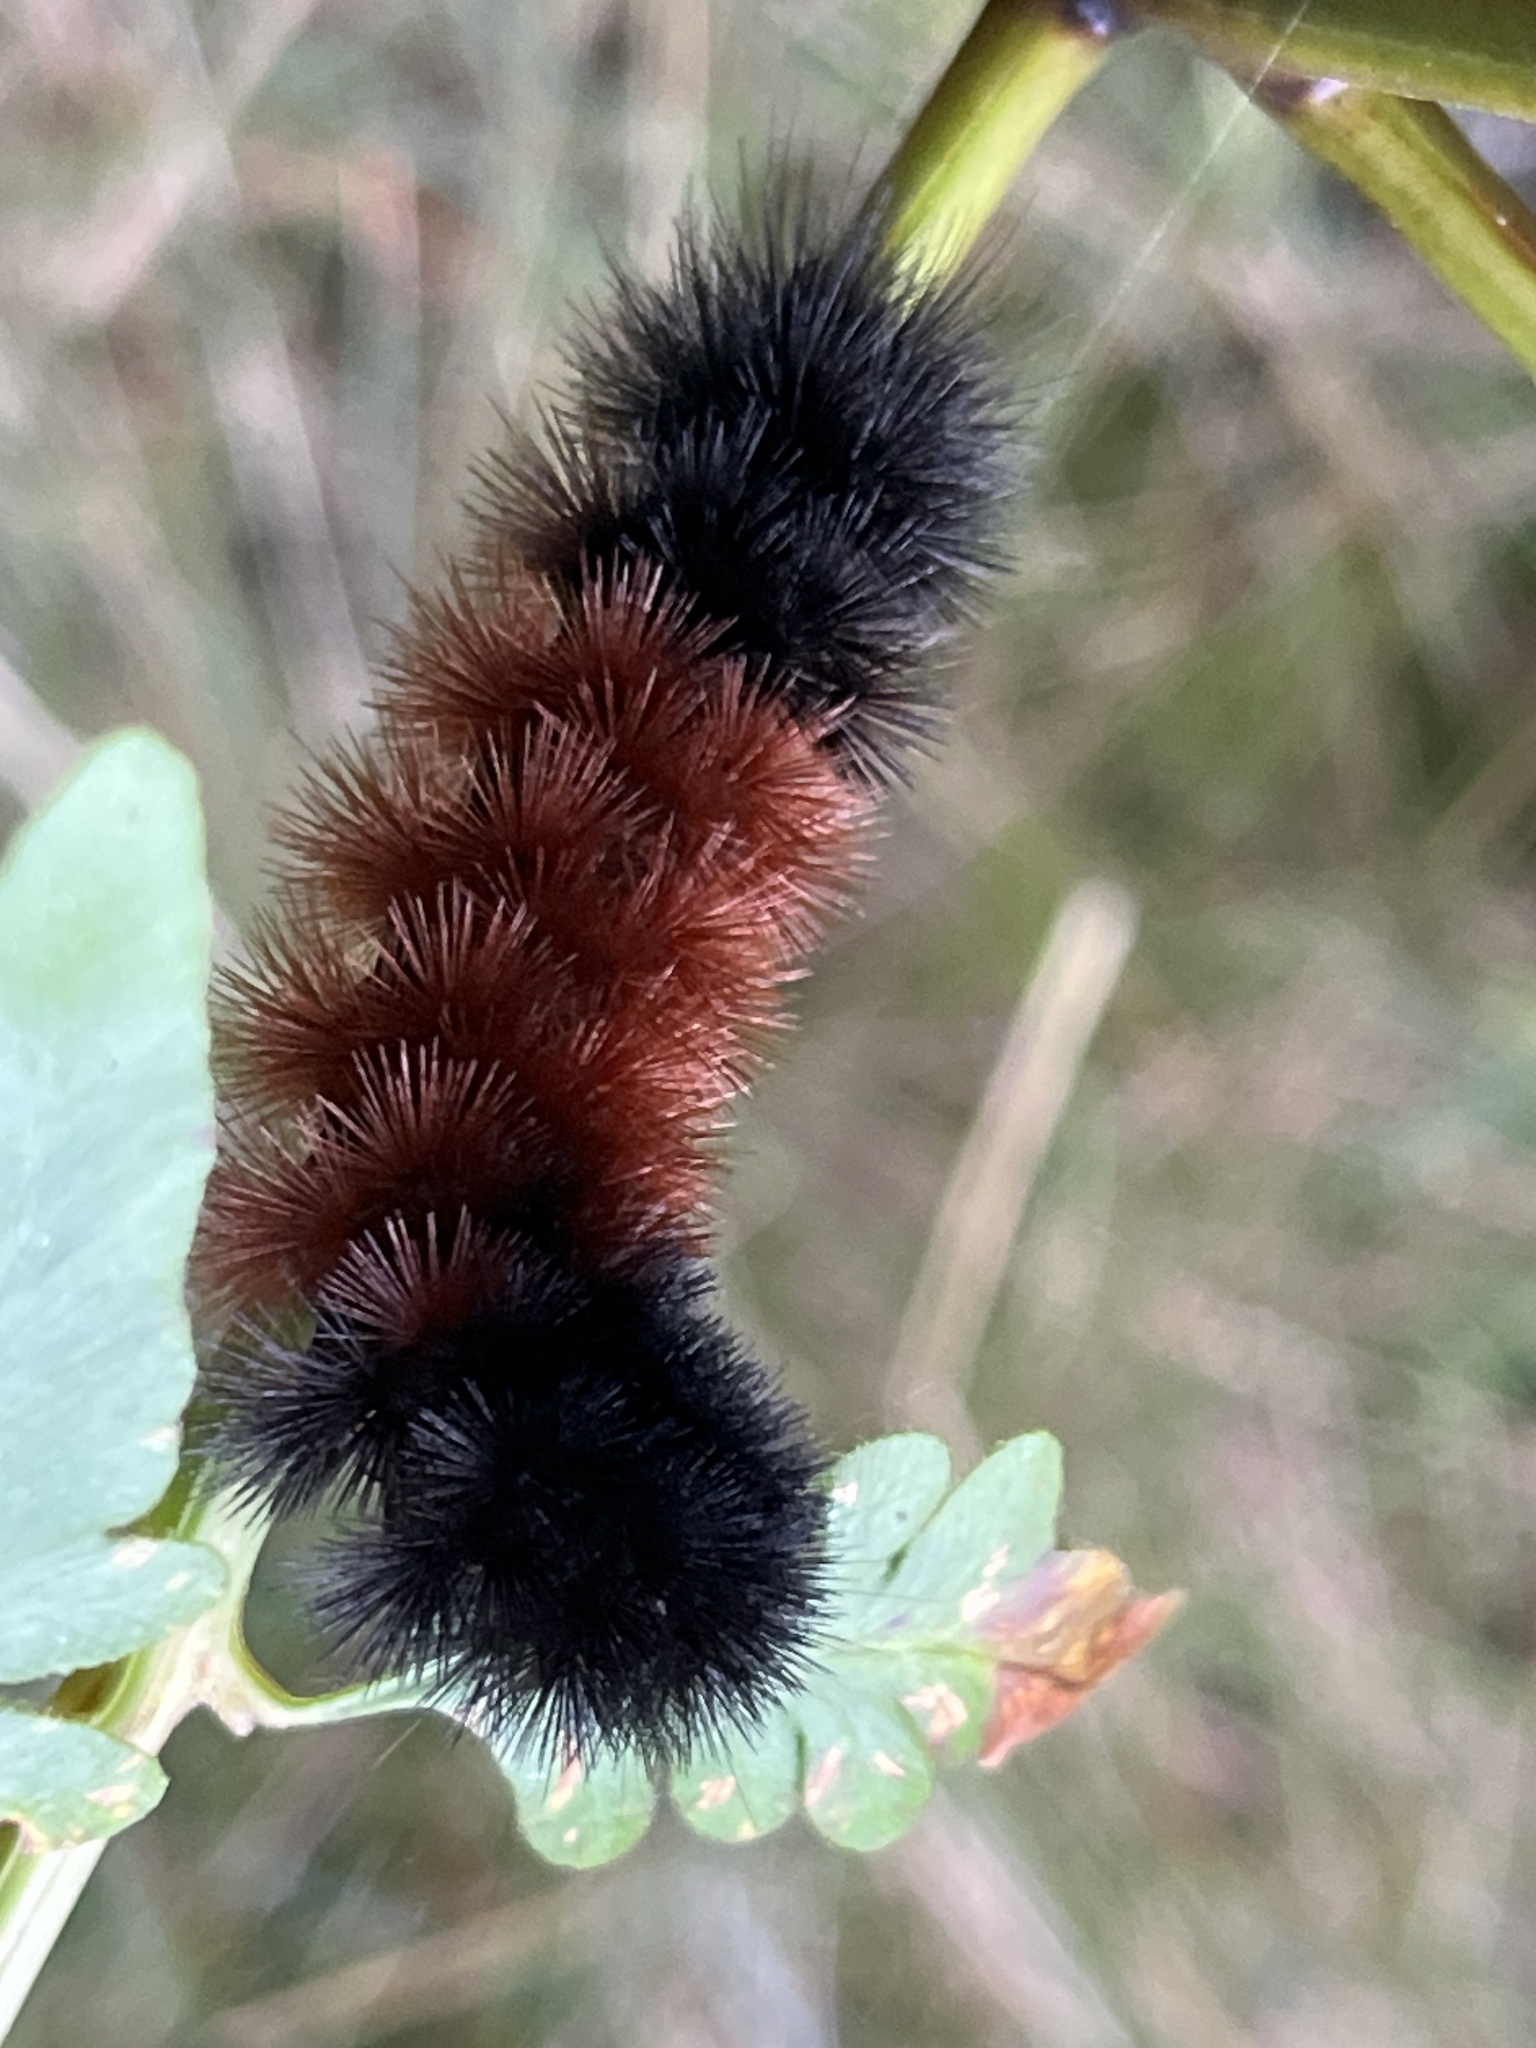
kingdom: Animalia
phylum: Arthropoda
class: Insecta
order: Lepidoptera
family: Erebidae
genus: Pyrrharctia
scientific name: Pyrrharctia isabella
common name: Isabella tiger moth
